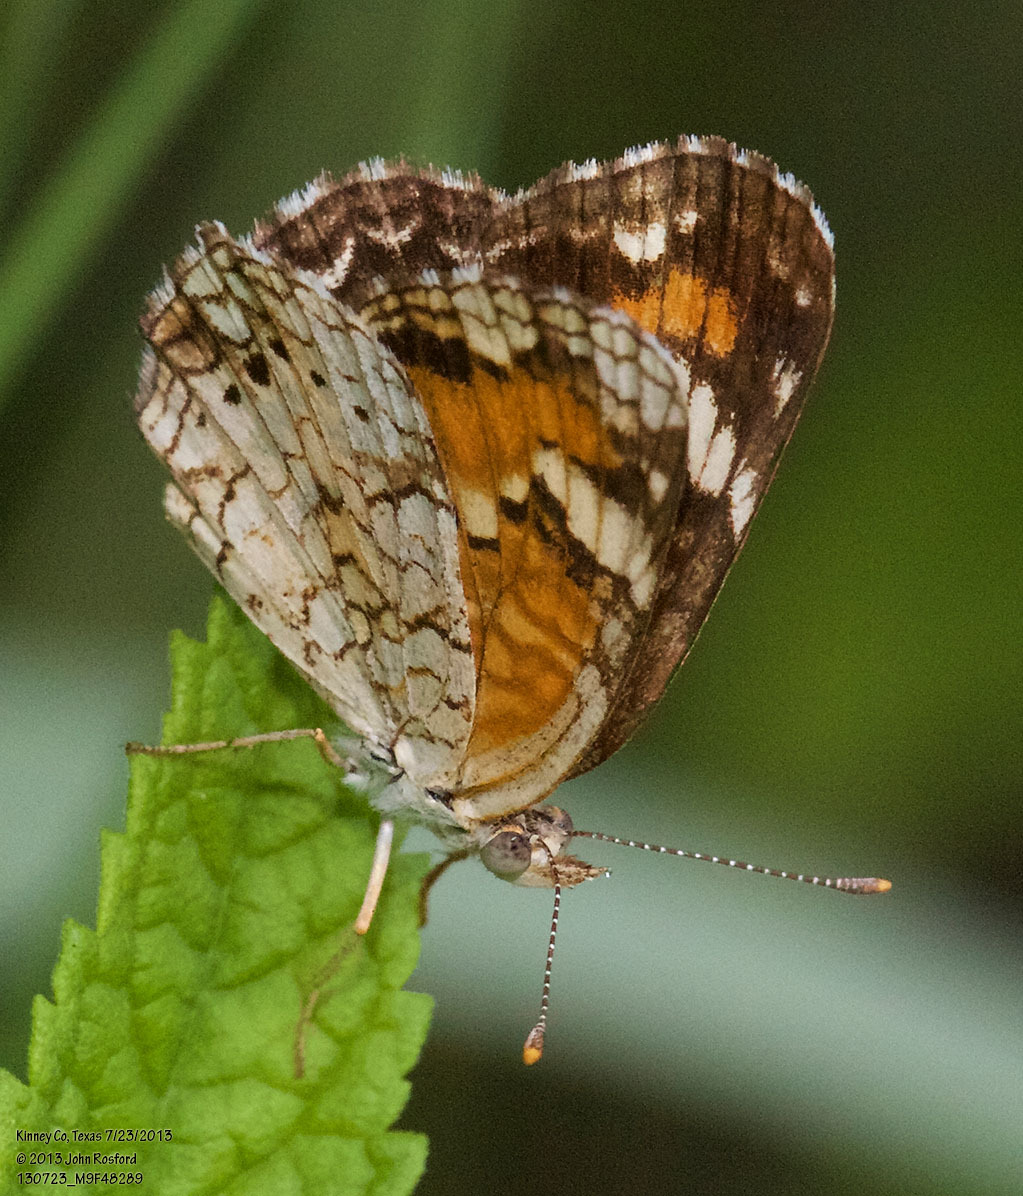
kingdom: Animalia
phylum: Arthropoda
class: Insecta
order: Lepidoptera
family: Nymphalidae
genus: Phyciodes
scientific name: Phyciodes phaon
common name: Phaon crescent
